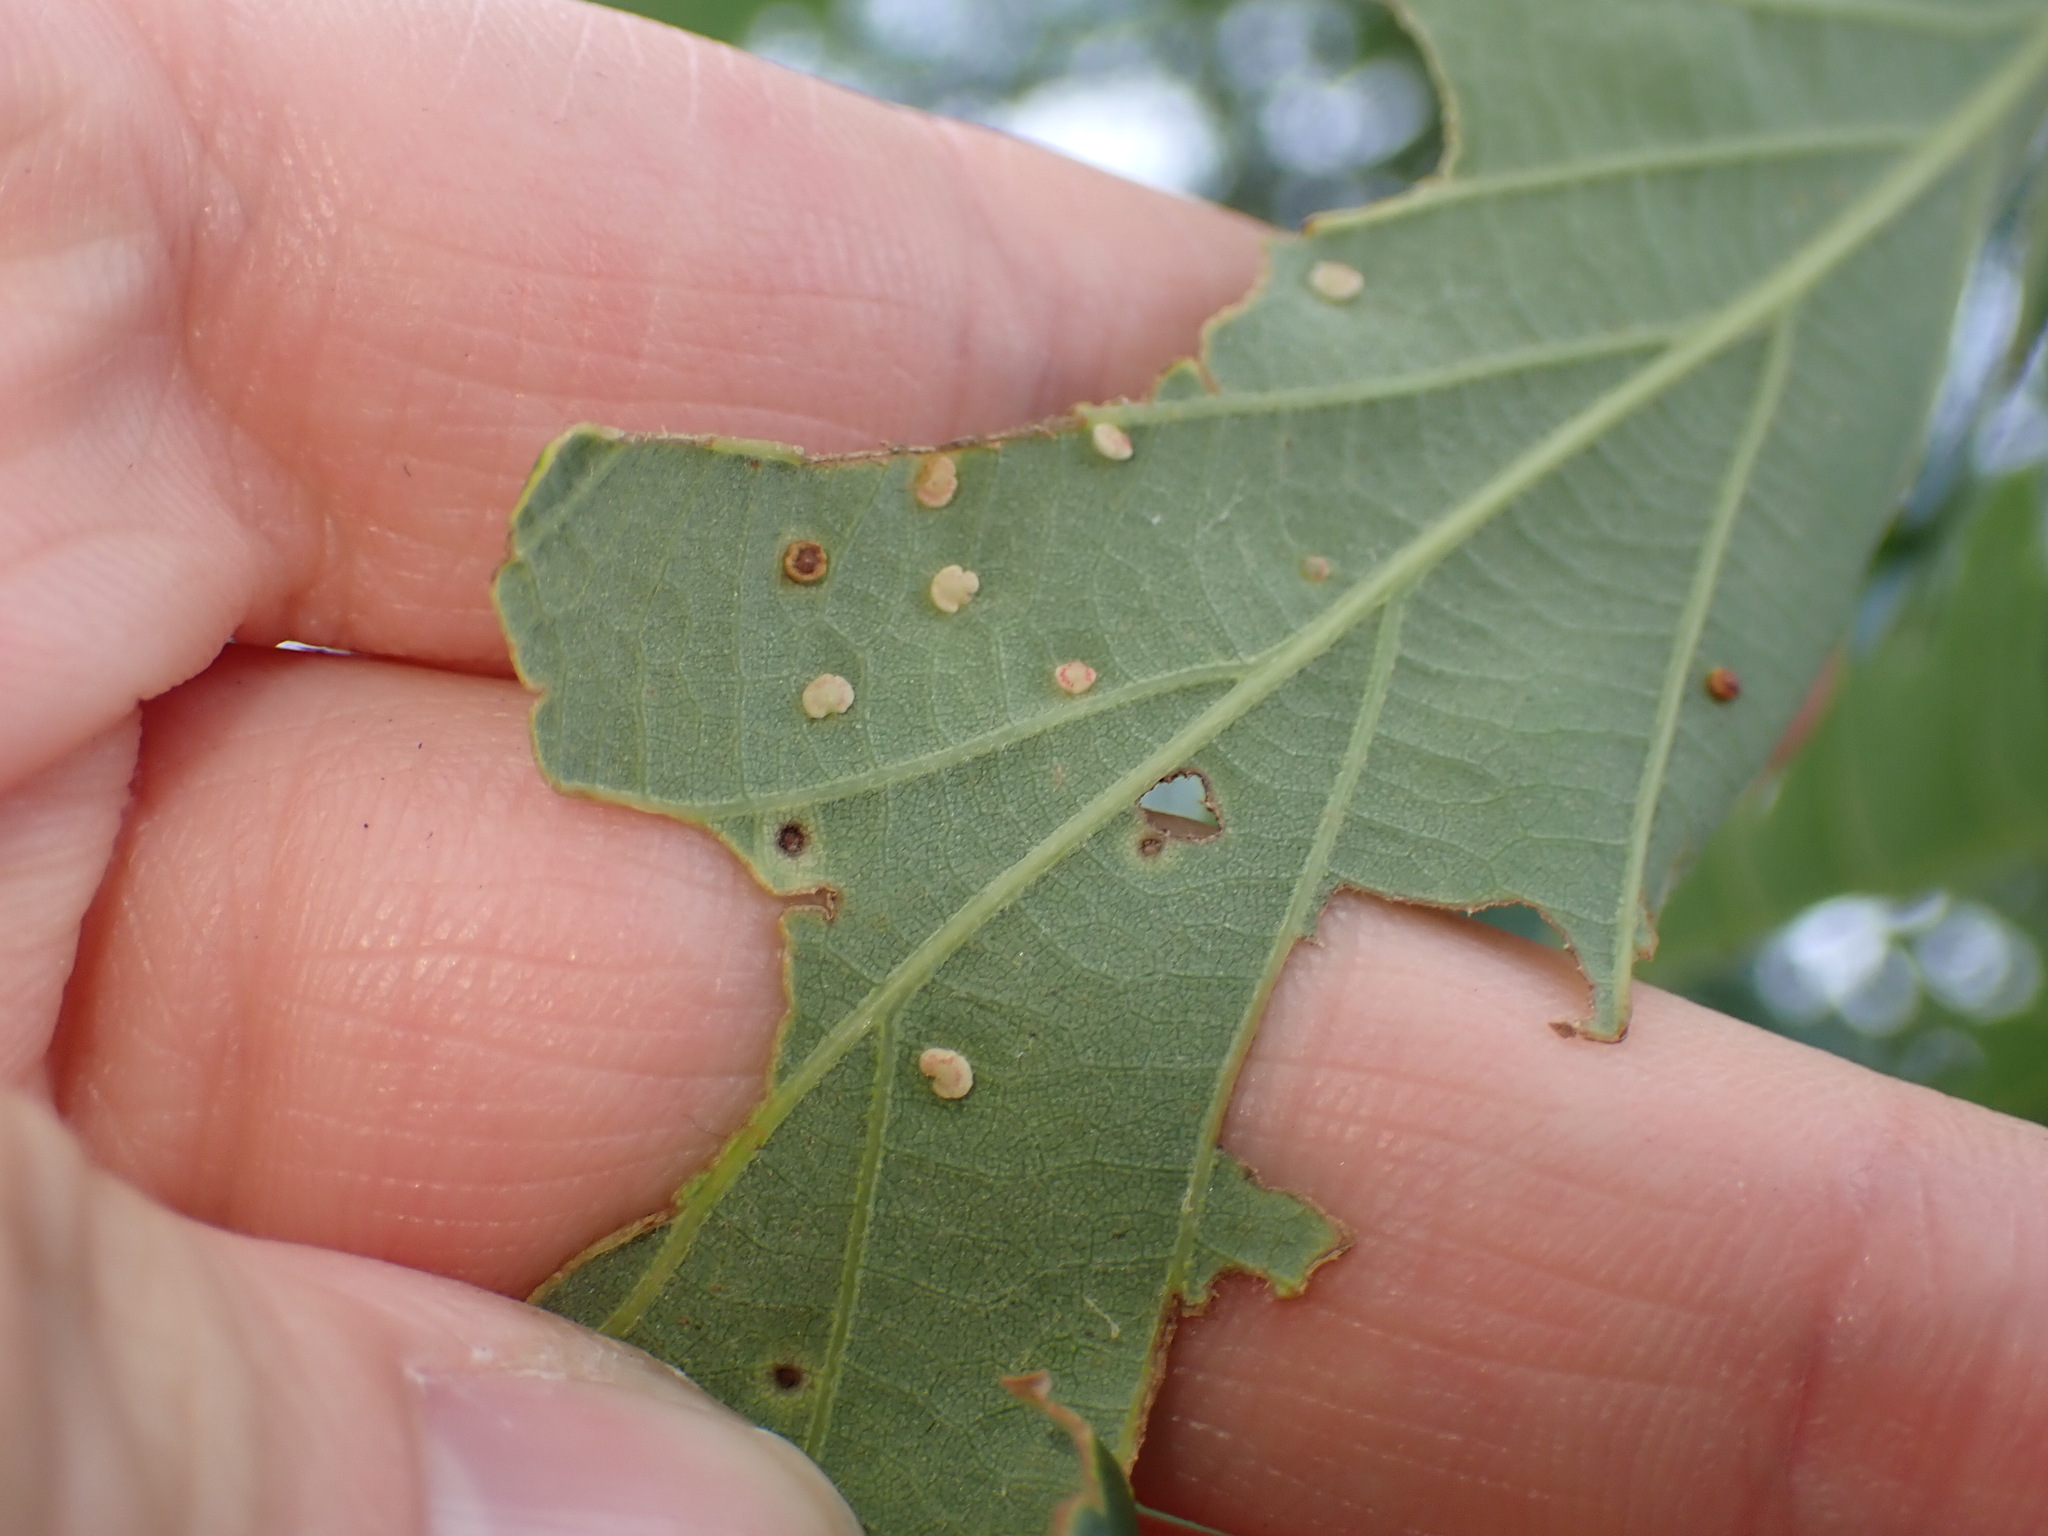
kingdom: Animalia
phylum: Arthropoda
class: Insecta
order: Hymenoptera
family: Cynipidae
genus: Neuroterus
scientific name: Neuroterus
